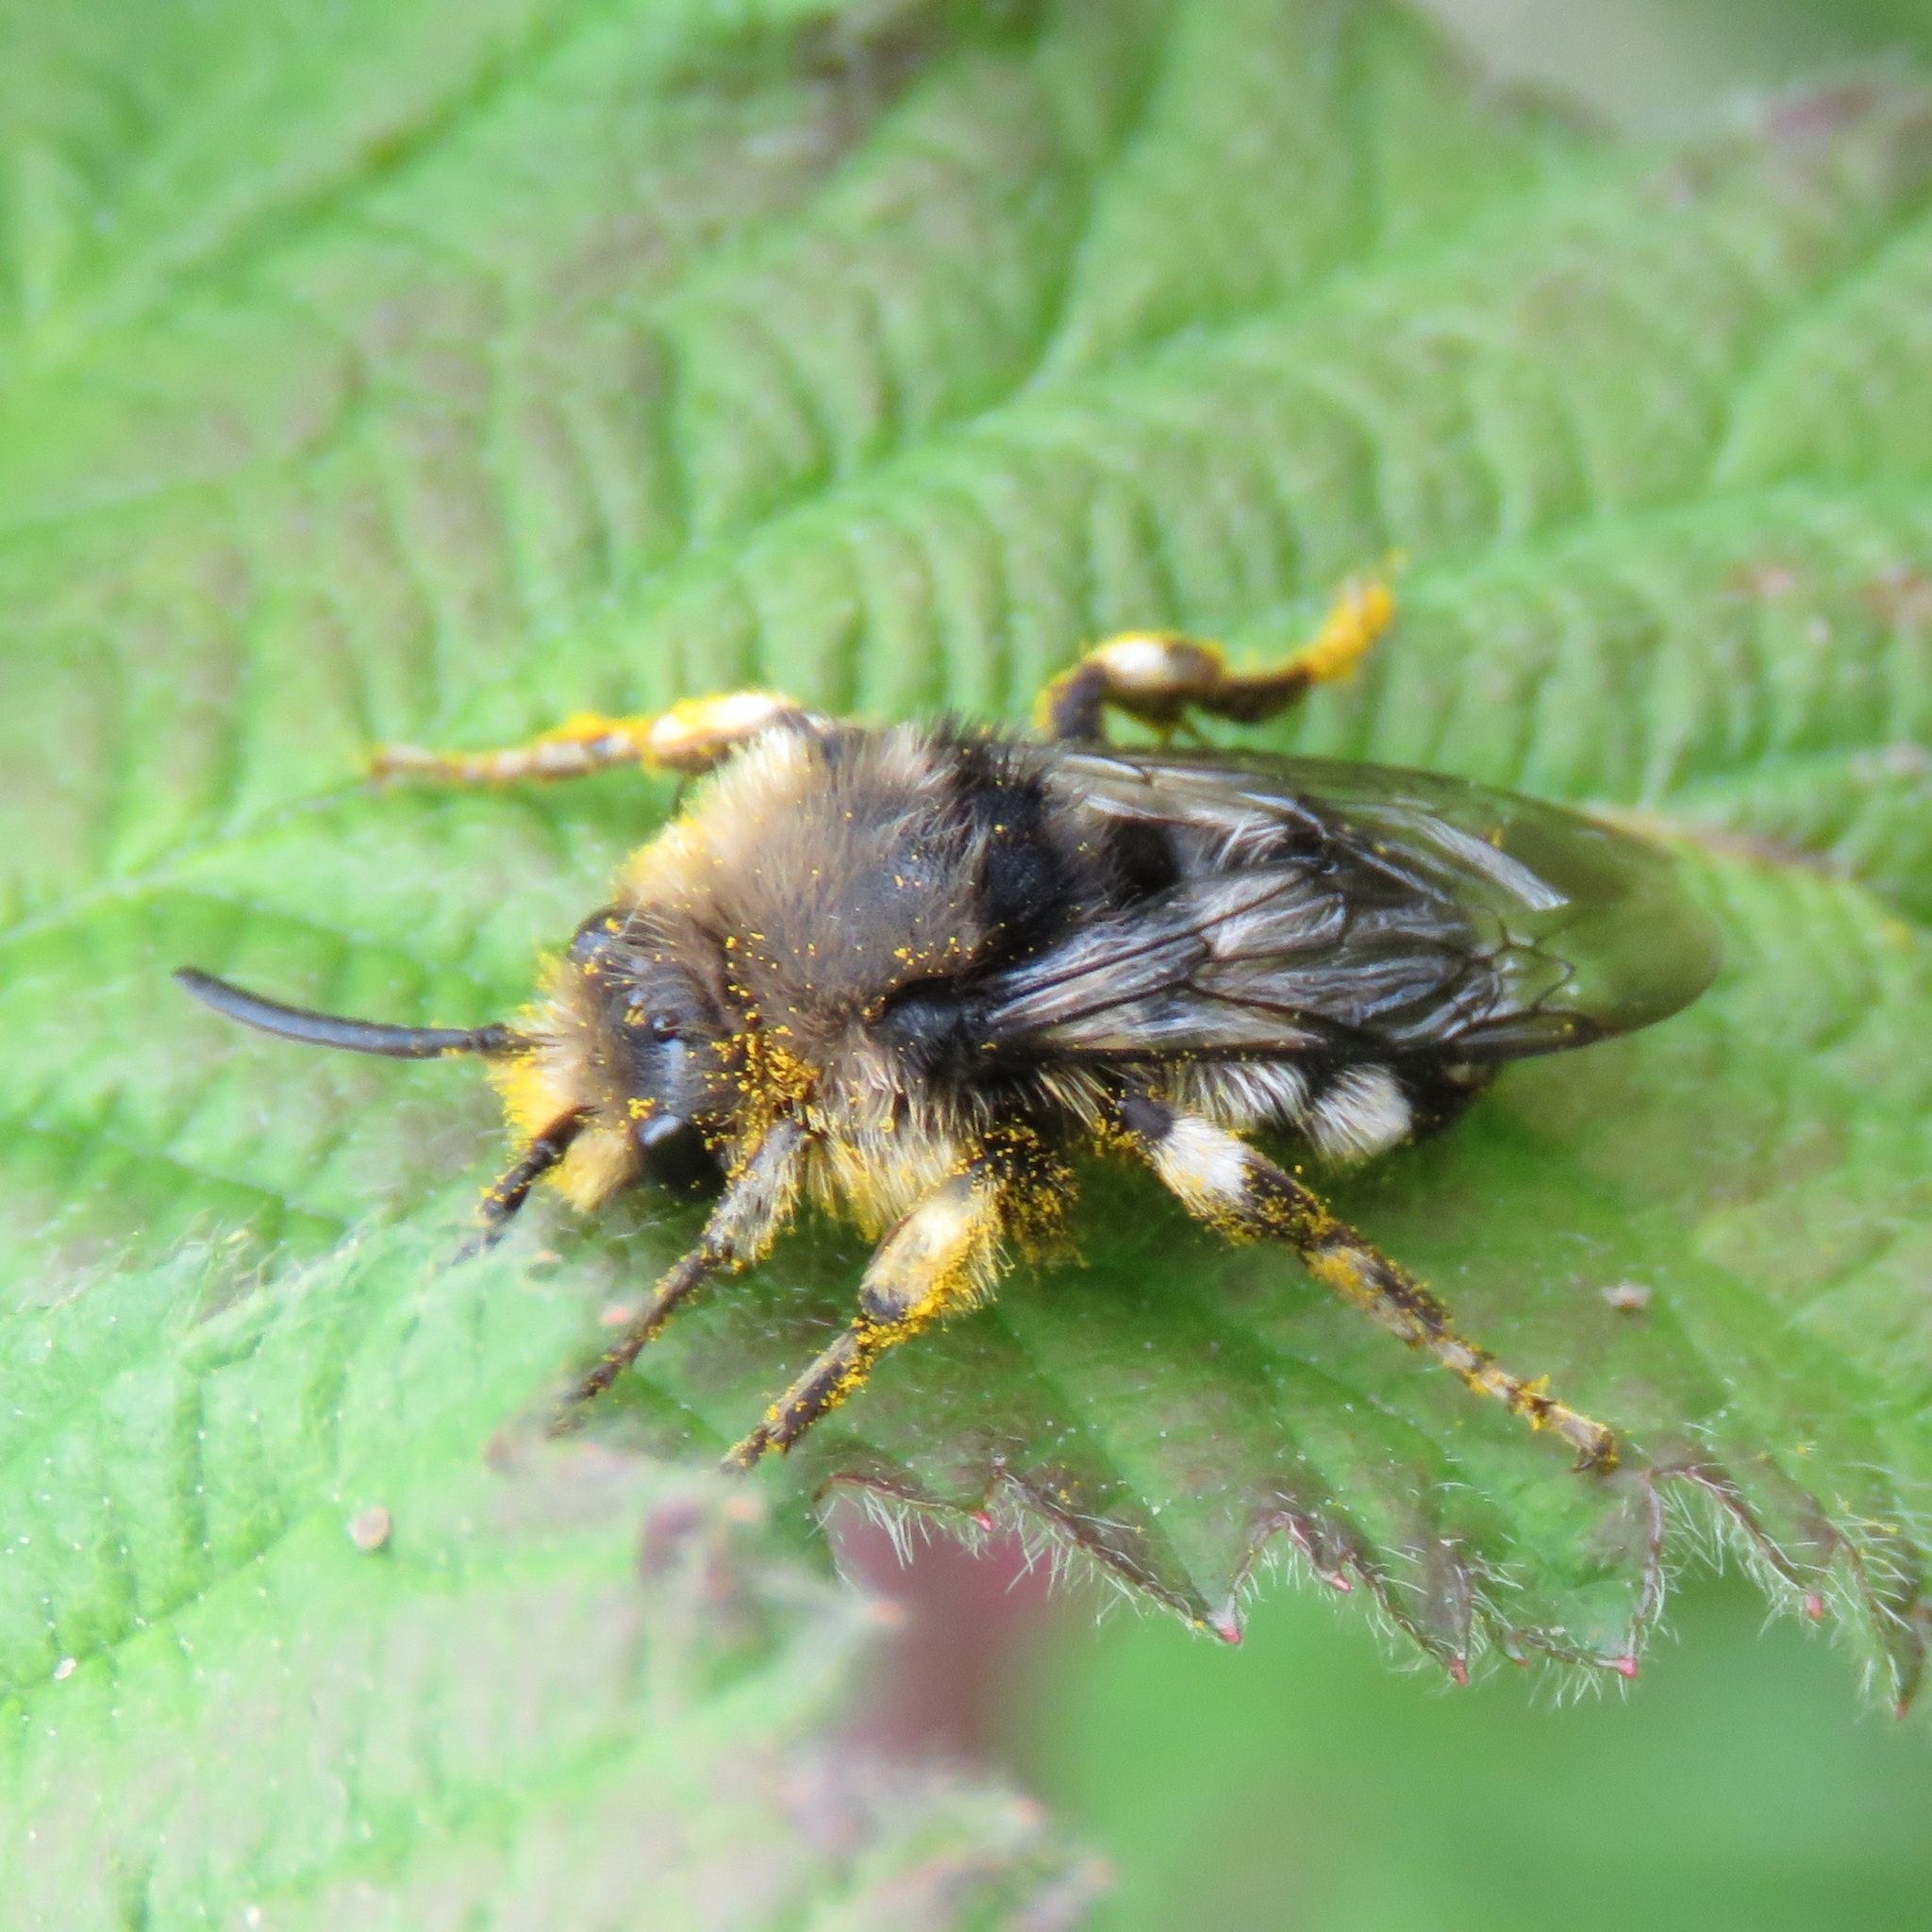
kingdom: Animalia
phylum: Arthropoda
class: Insecta
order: Hymenoptera
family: Apidae
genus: Melecta
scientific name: Melecta albifrons
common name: Common mourning bee
